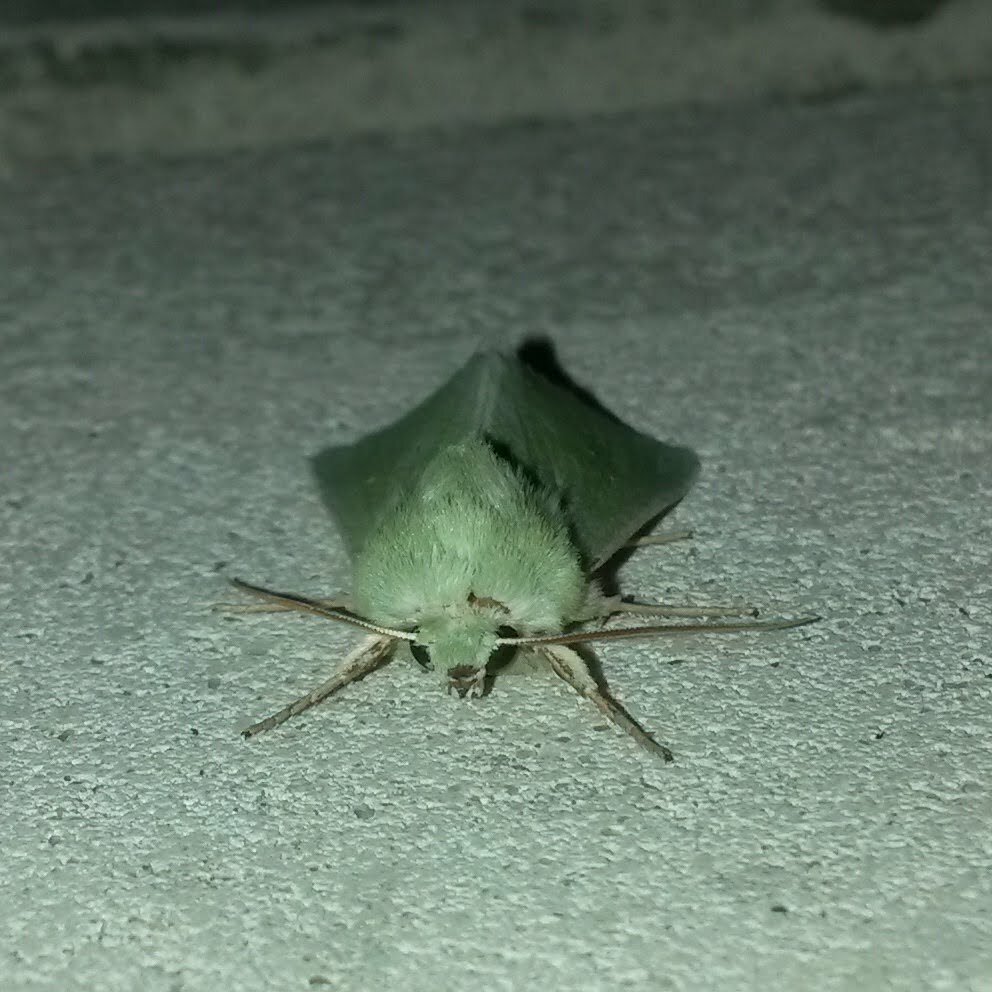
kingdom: Animalia
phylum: Arthropoda
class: Insecta
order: Lepidoptera
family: Noctuidae
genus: Calamia
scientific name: Calamia tridens
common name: Burren green
